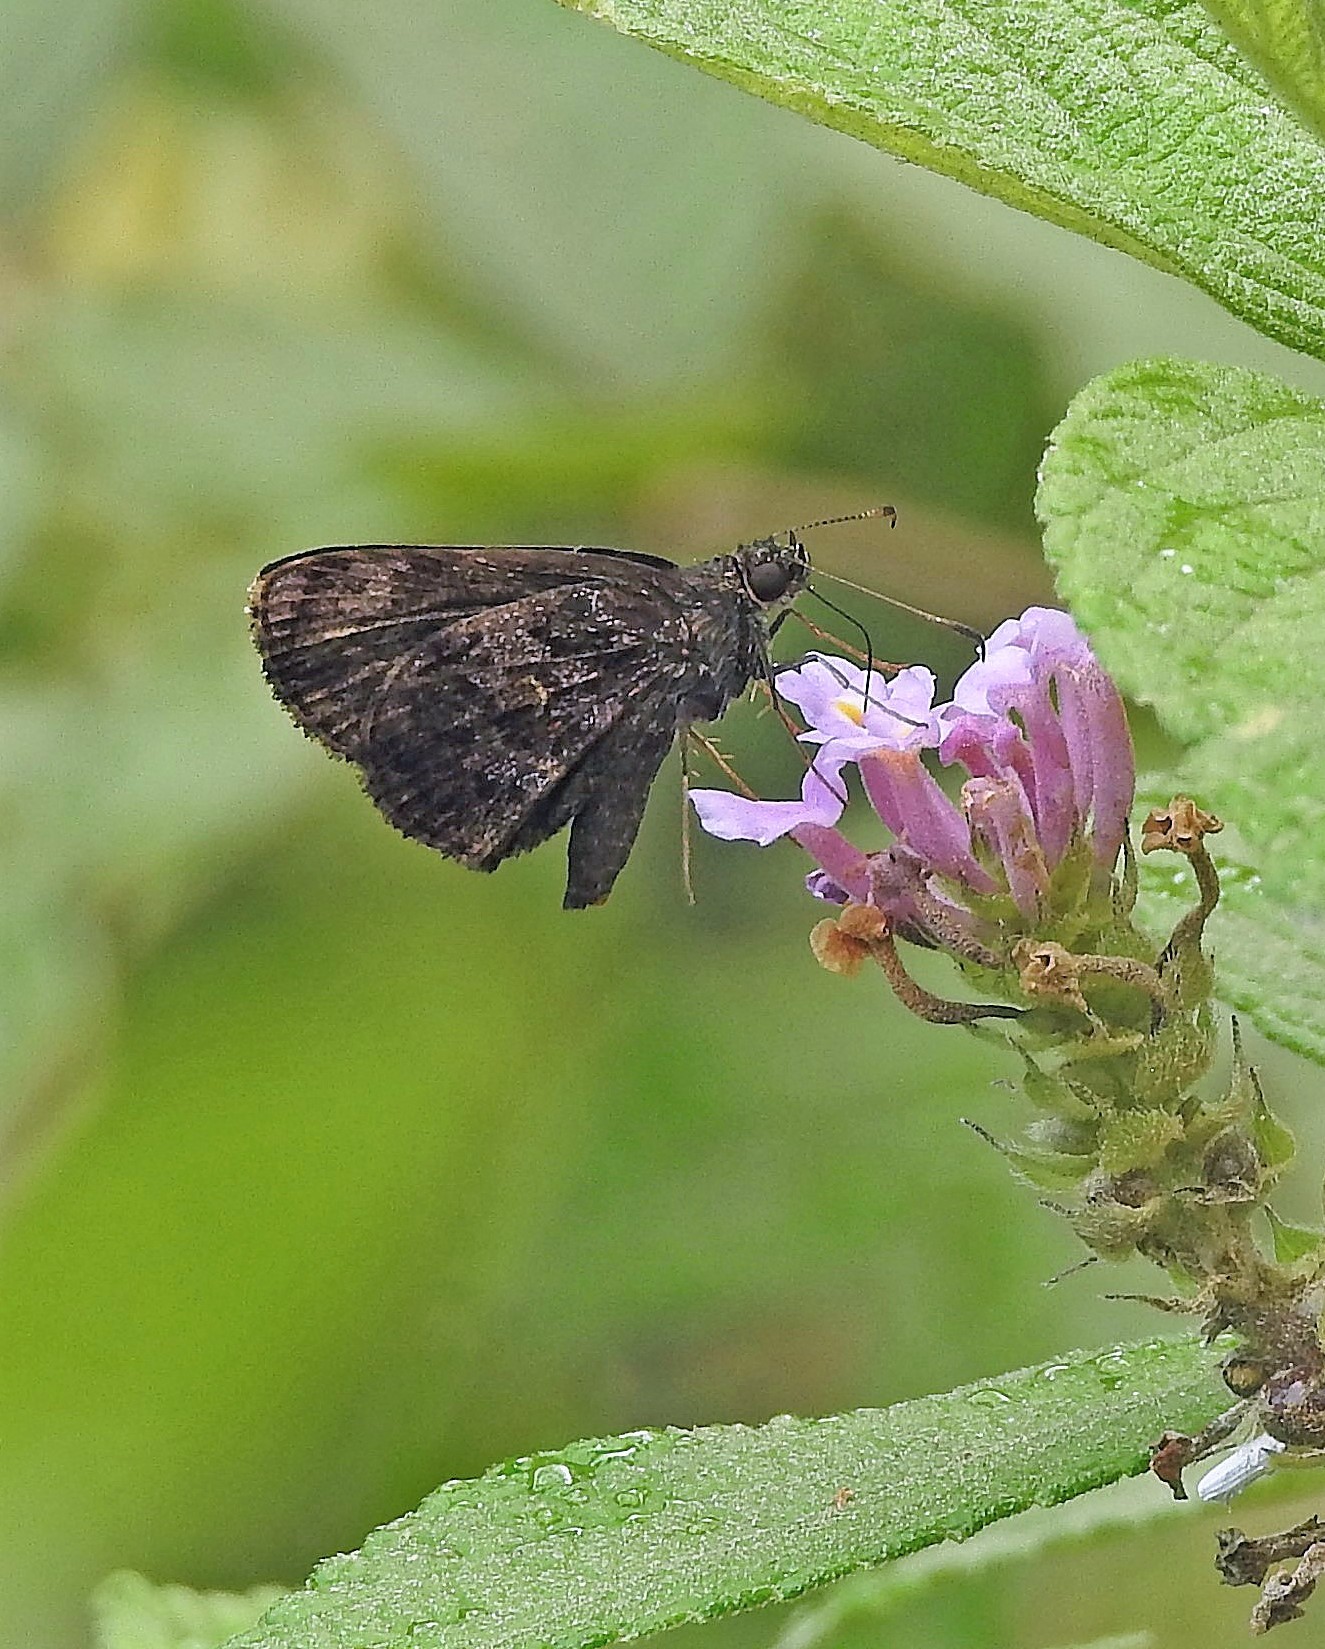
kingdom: Animalia
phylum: Arthropoda
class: Insecta
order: Lepidoptera
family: Hesperiidae
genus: Lucida
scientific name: Lucida lucia
